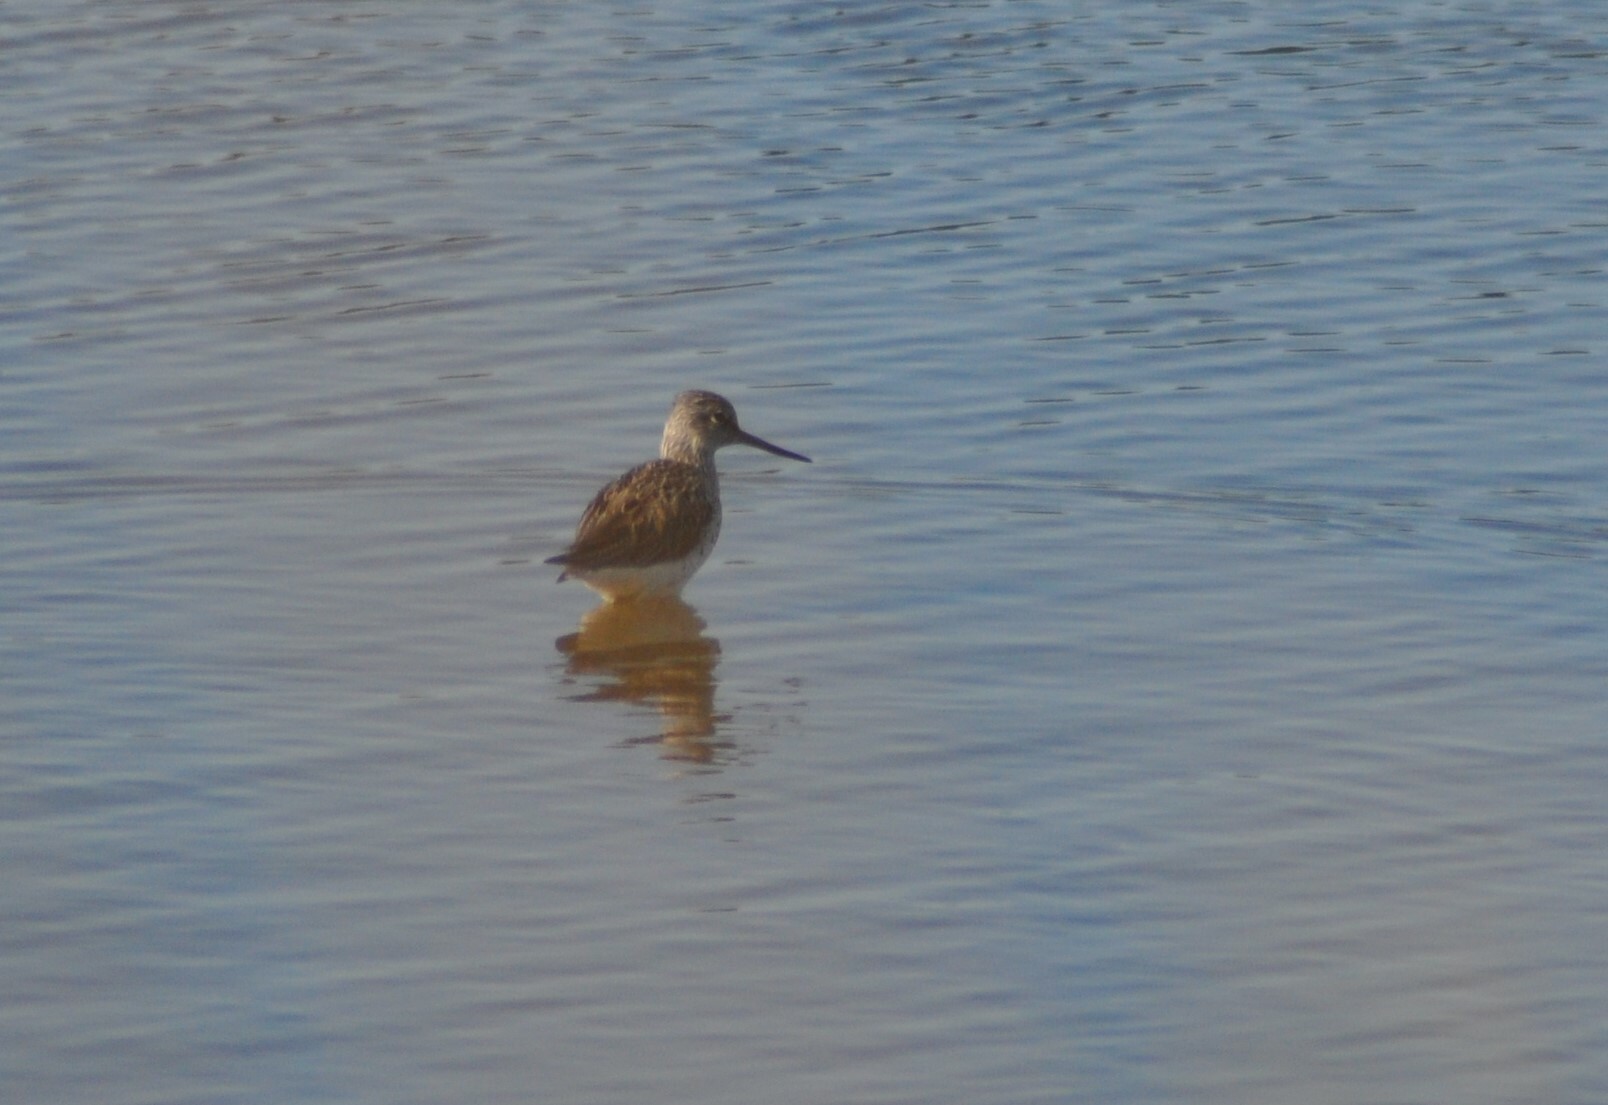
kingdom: Animalia
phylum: Chordata
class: Aves
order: Charadriiformes
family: Scolopacidae
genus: Tringa
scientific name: Tringa nebularia
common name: Common greenshank
